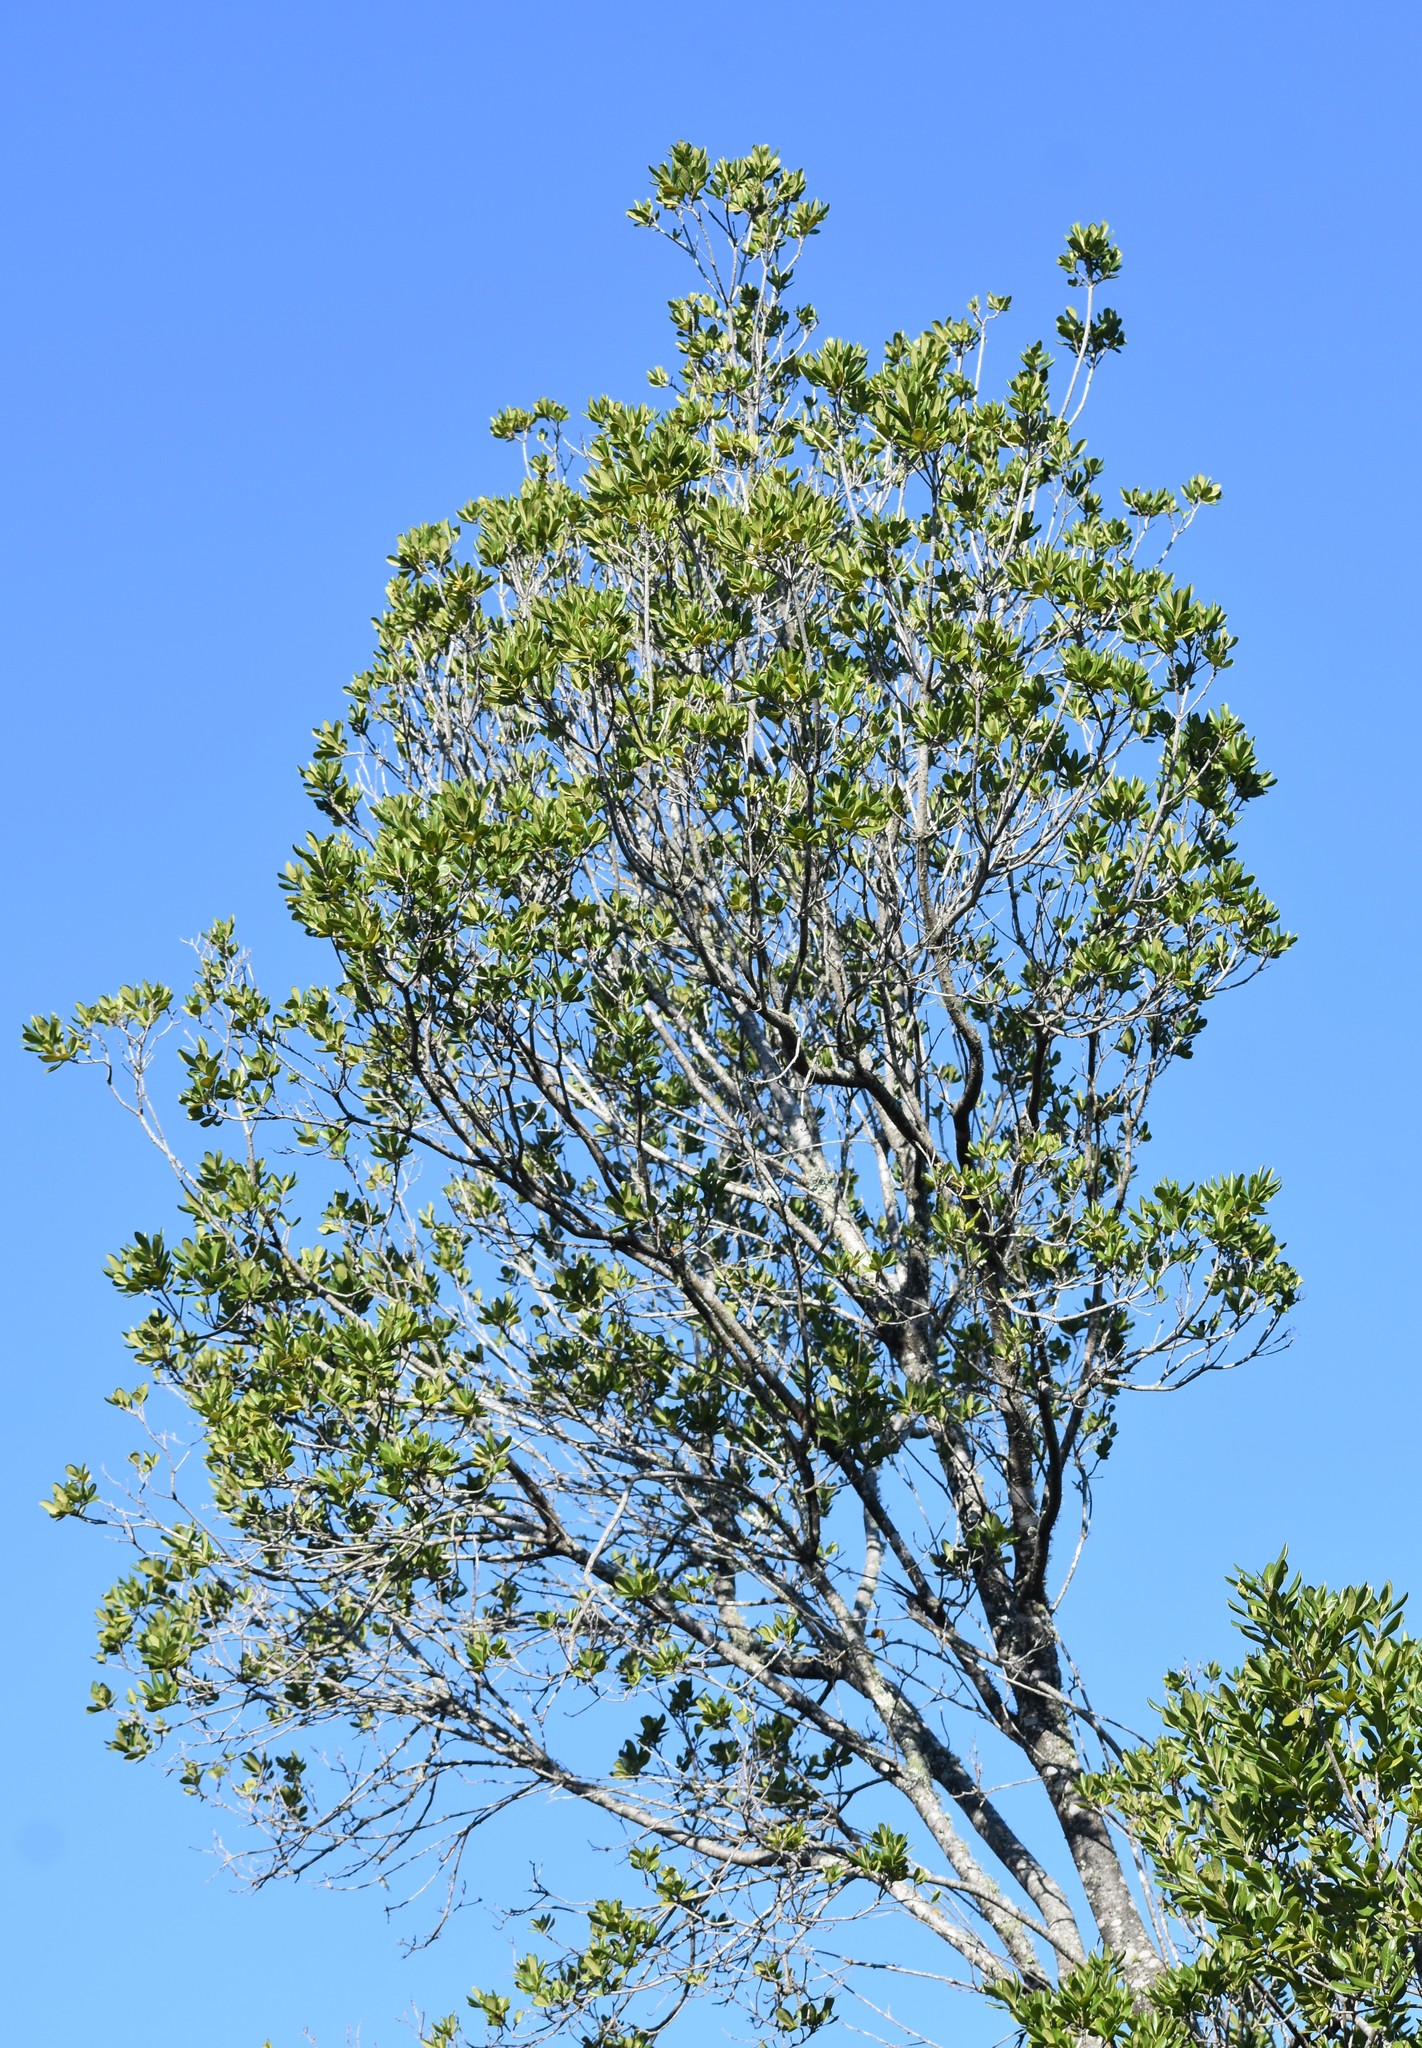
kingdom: Plantae
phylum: Tracheophyta
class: Magnoliopsida
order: Apiales
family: Pittosporaceae
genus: Pittosporum
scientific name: Pittosporum viridiflorum
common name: Cape cheesewood
